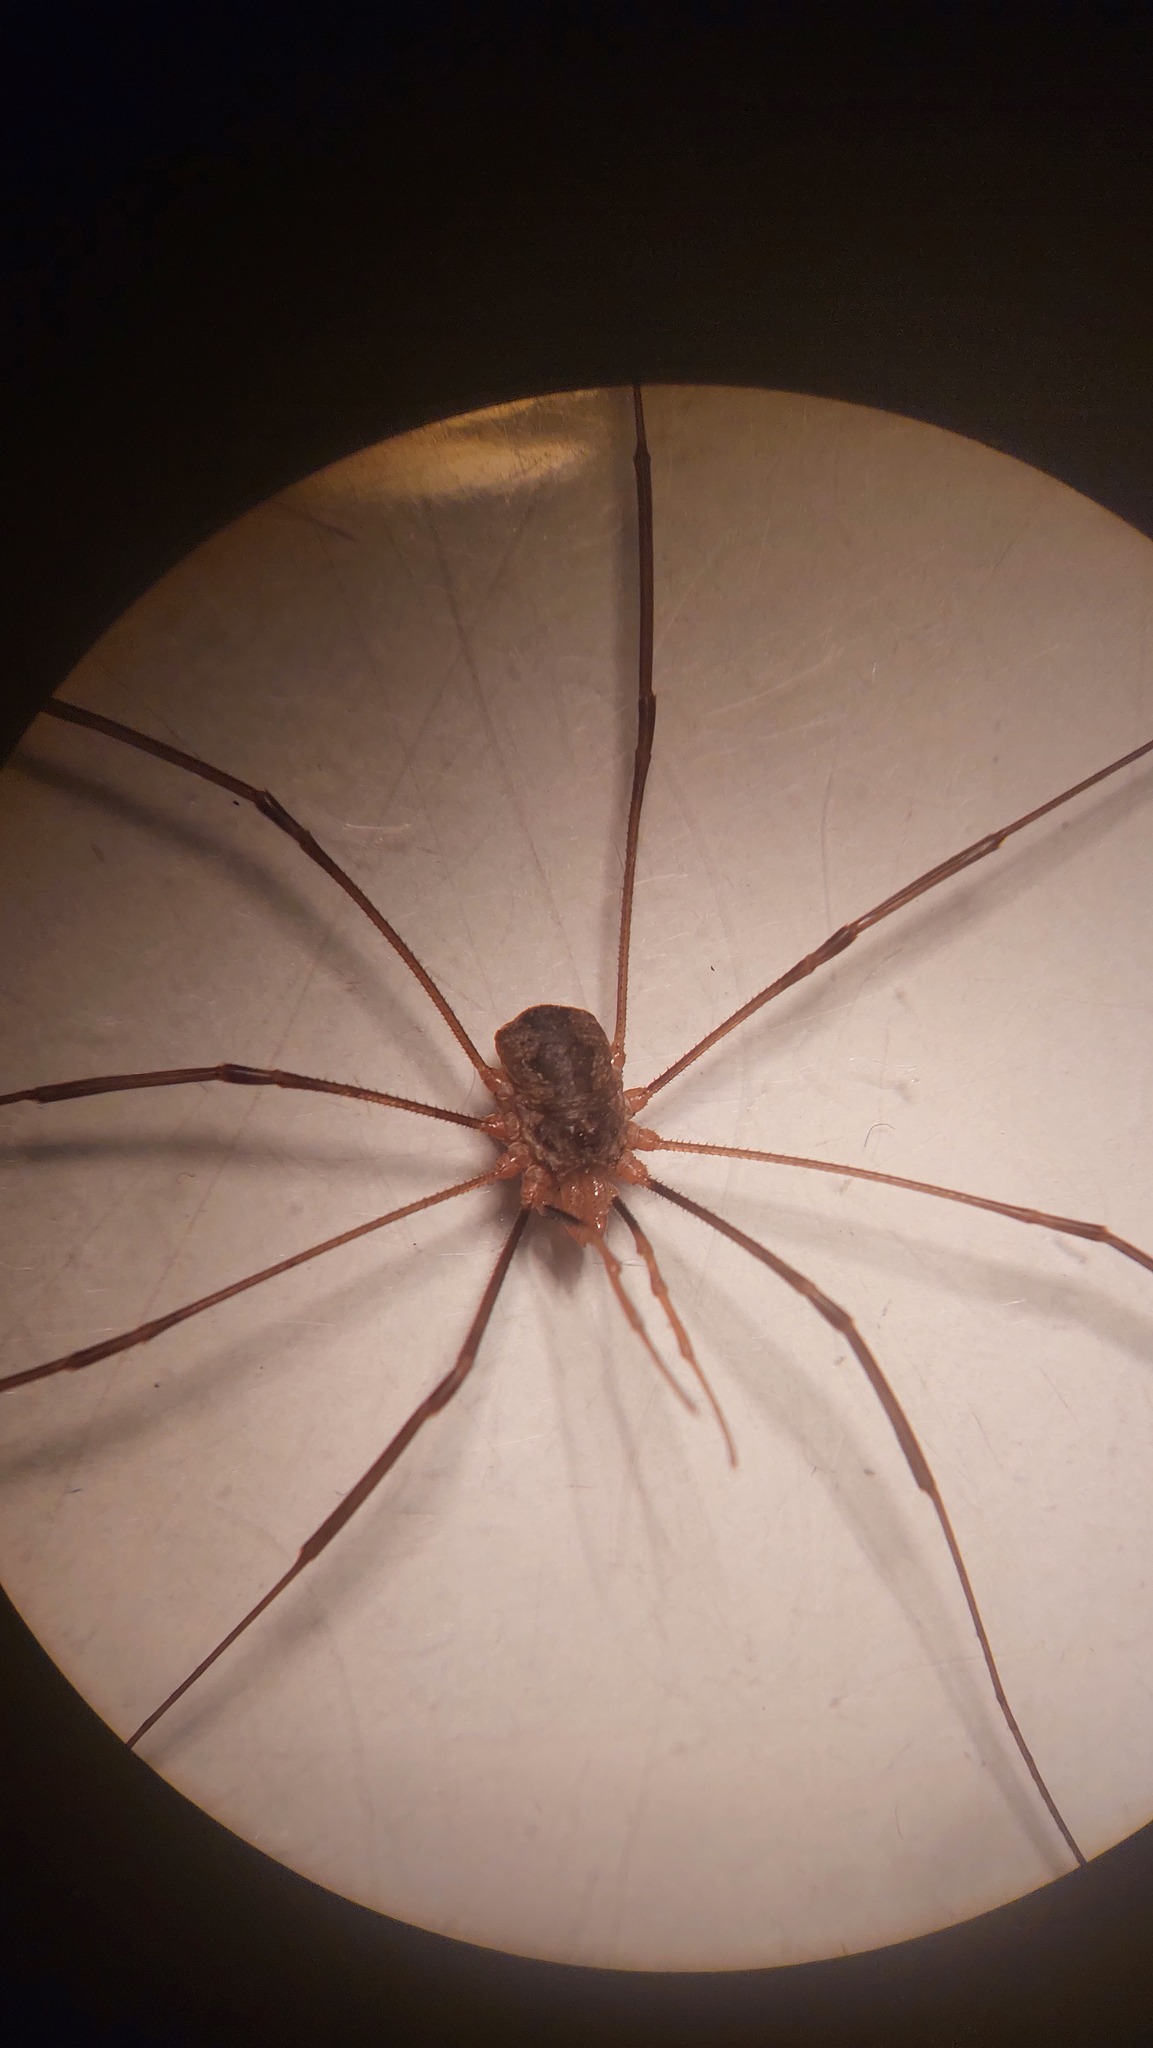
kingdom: Animalia
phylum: Arthropoda
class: Arachnida
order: Opiliones
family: Phalangiidae
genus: Phalangium
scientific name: Phalangium opilio
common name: Daddy longleg
